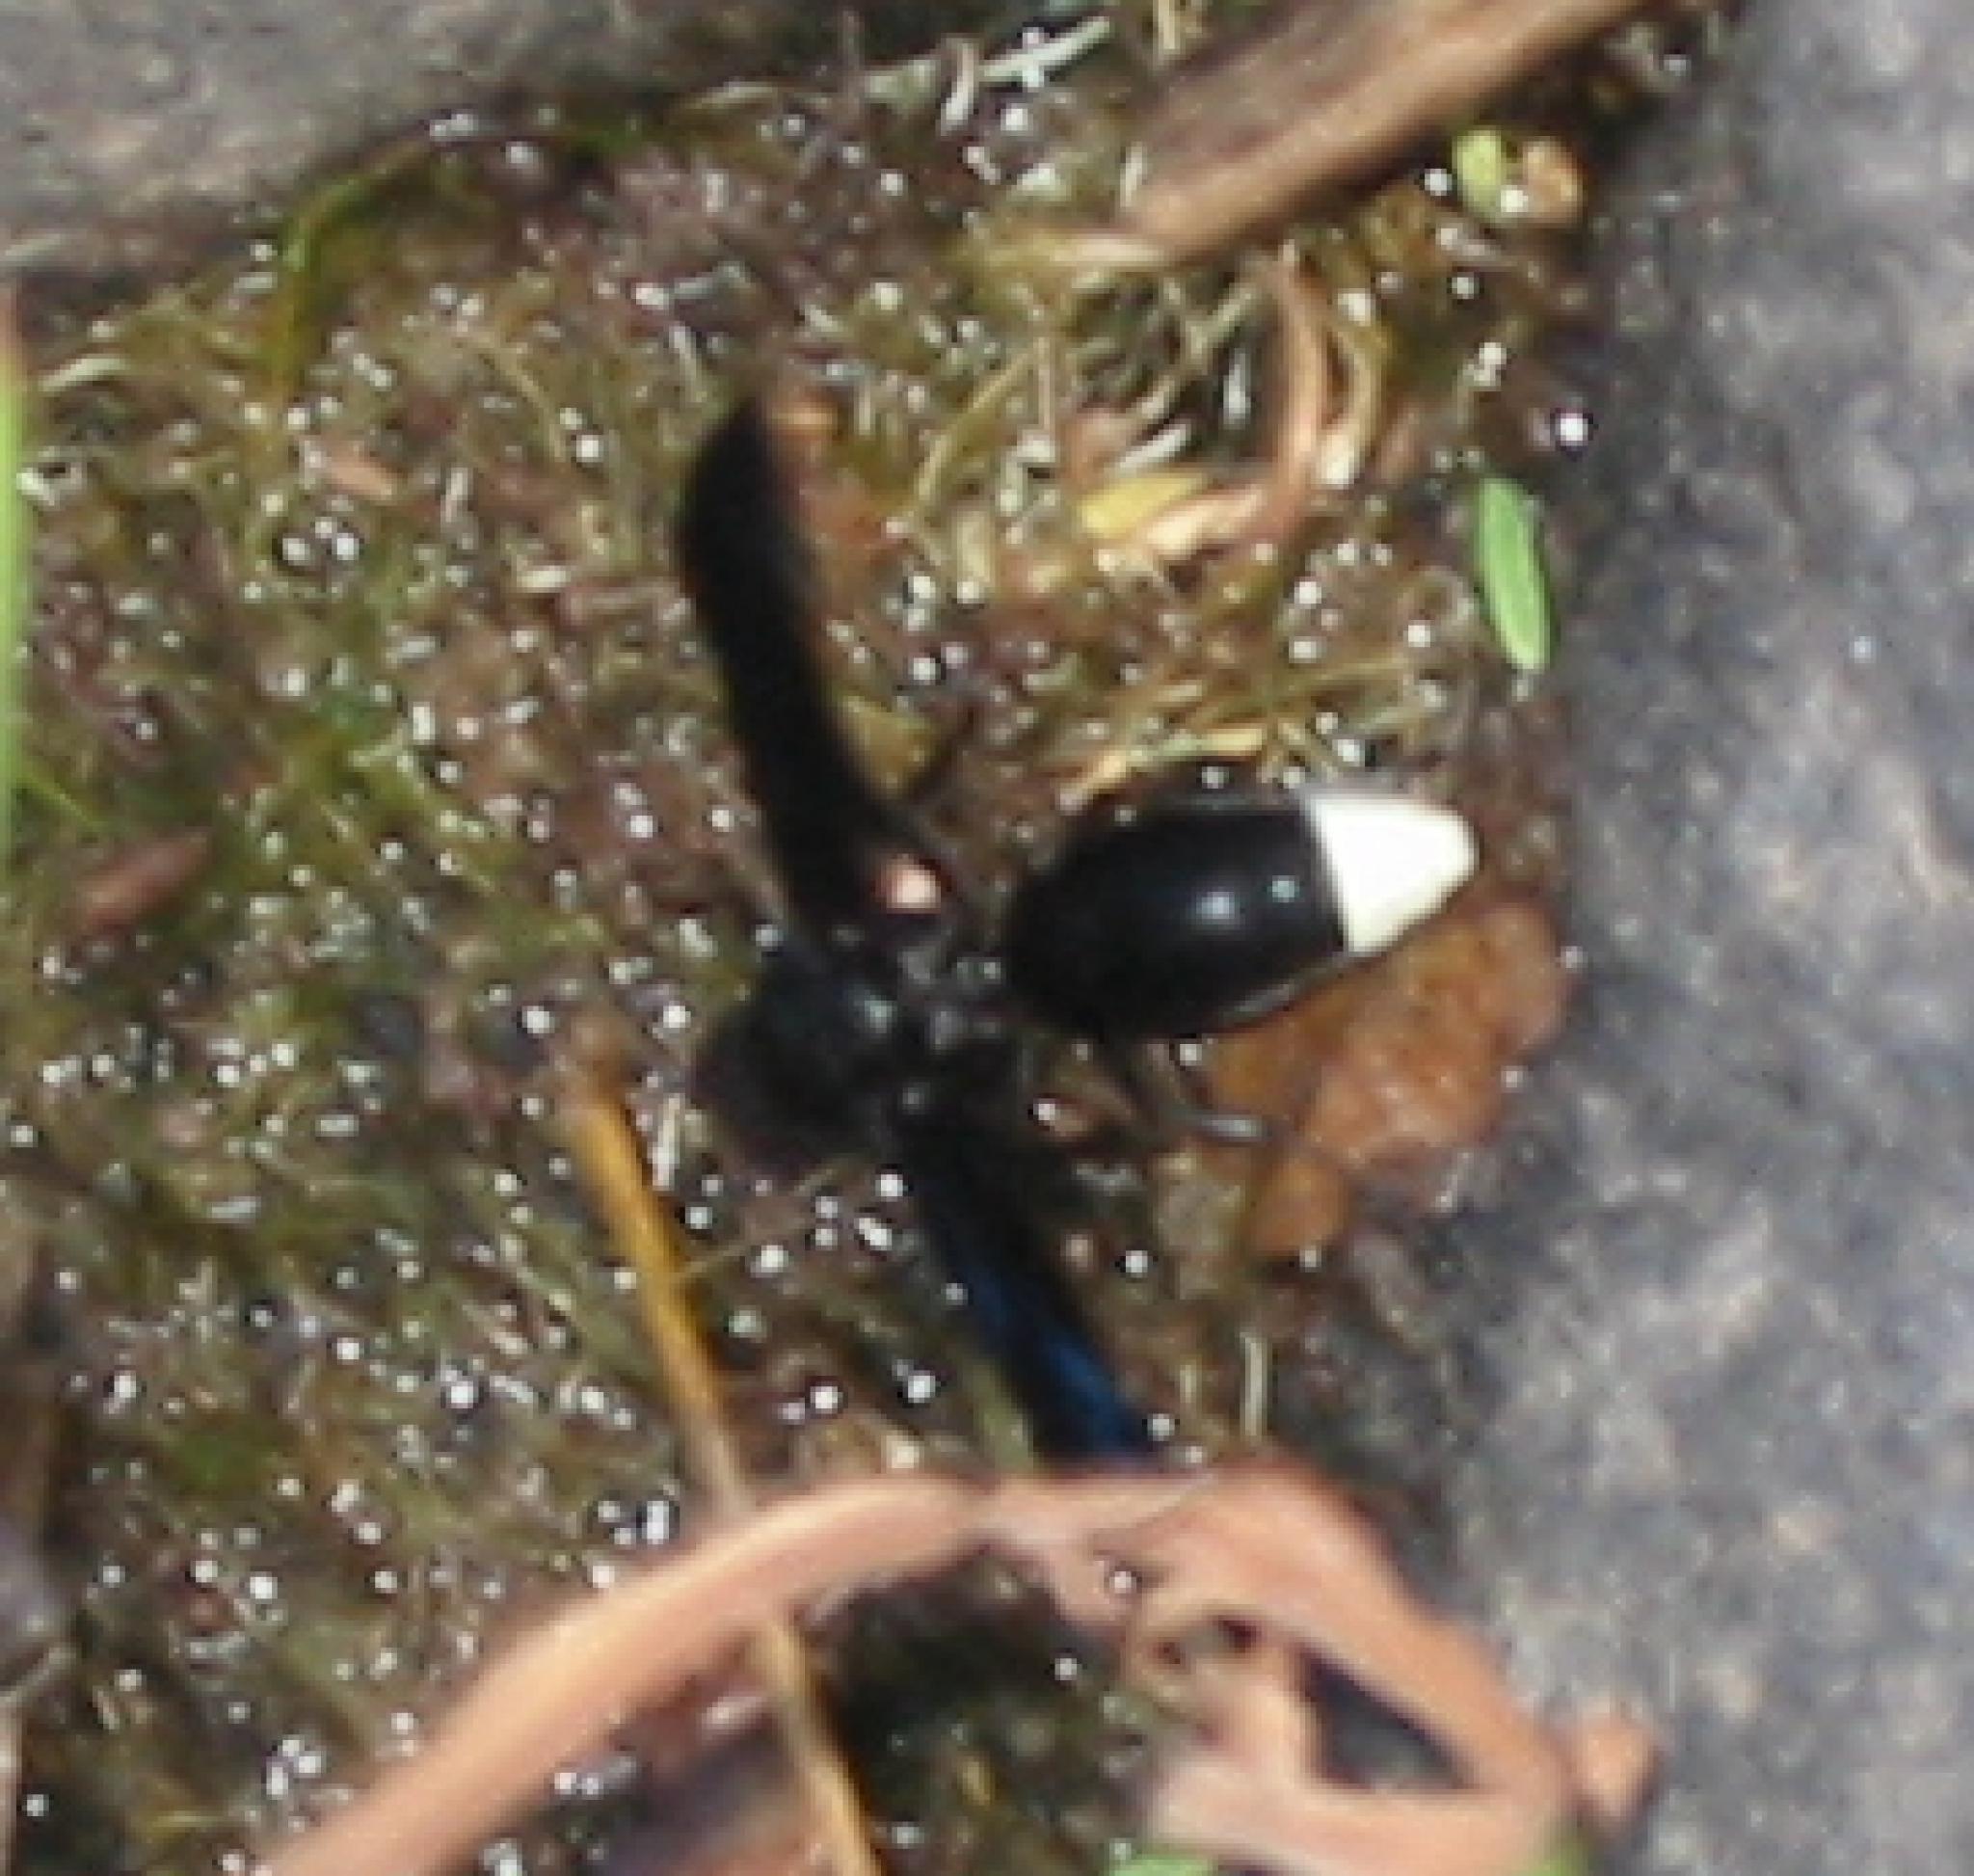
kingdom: Animalia
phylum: Arthropoda
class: Insecta
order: Hymenoptera
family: Vespidae
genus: Synagris
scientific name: Synagris mirabilis
